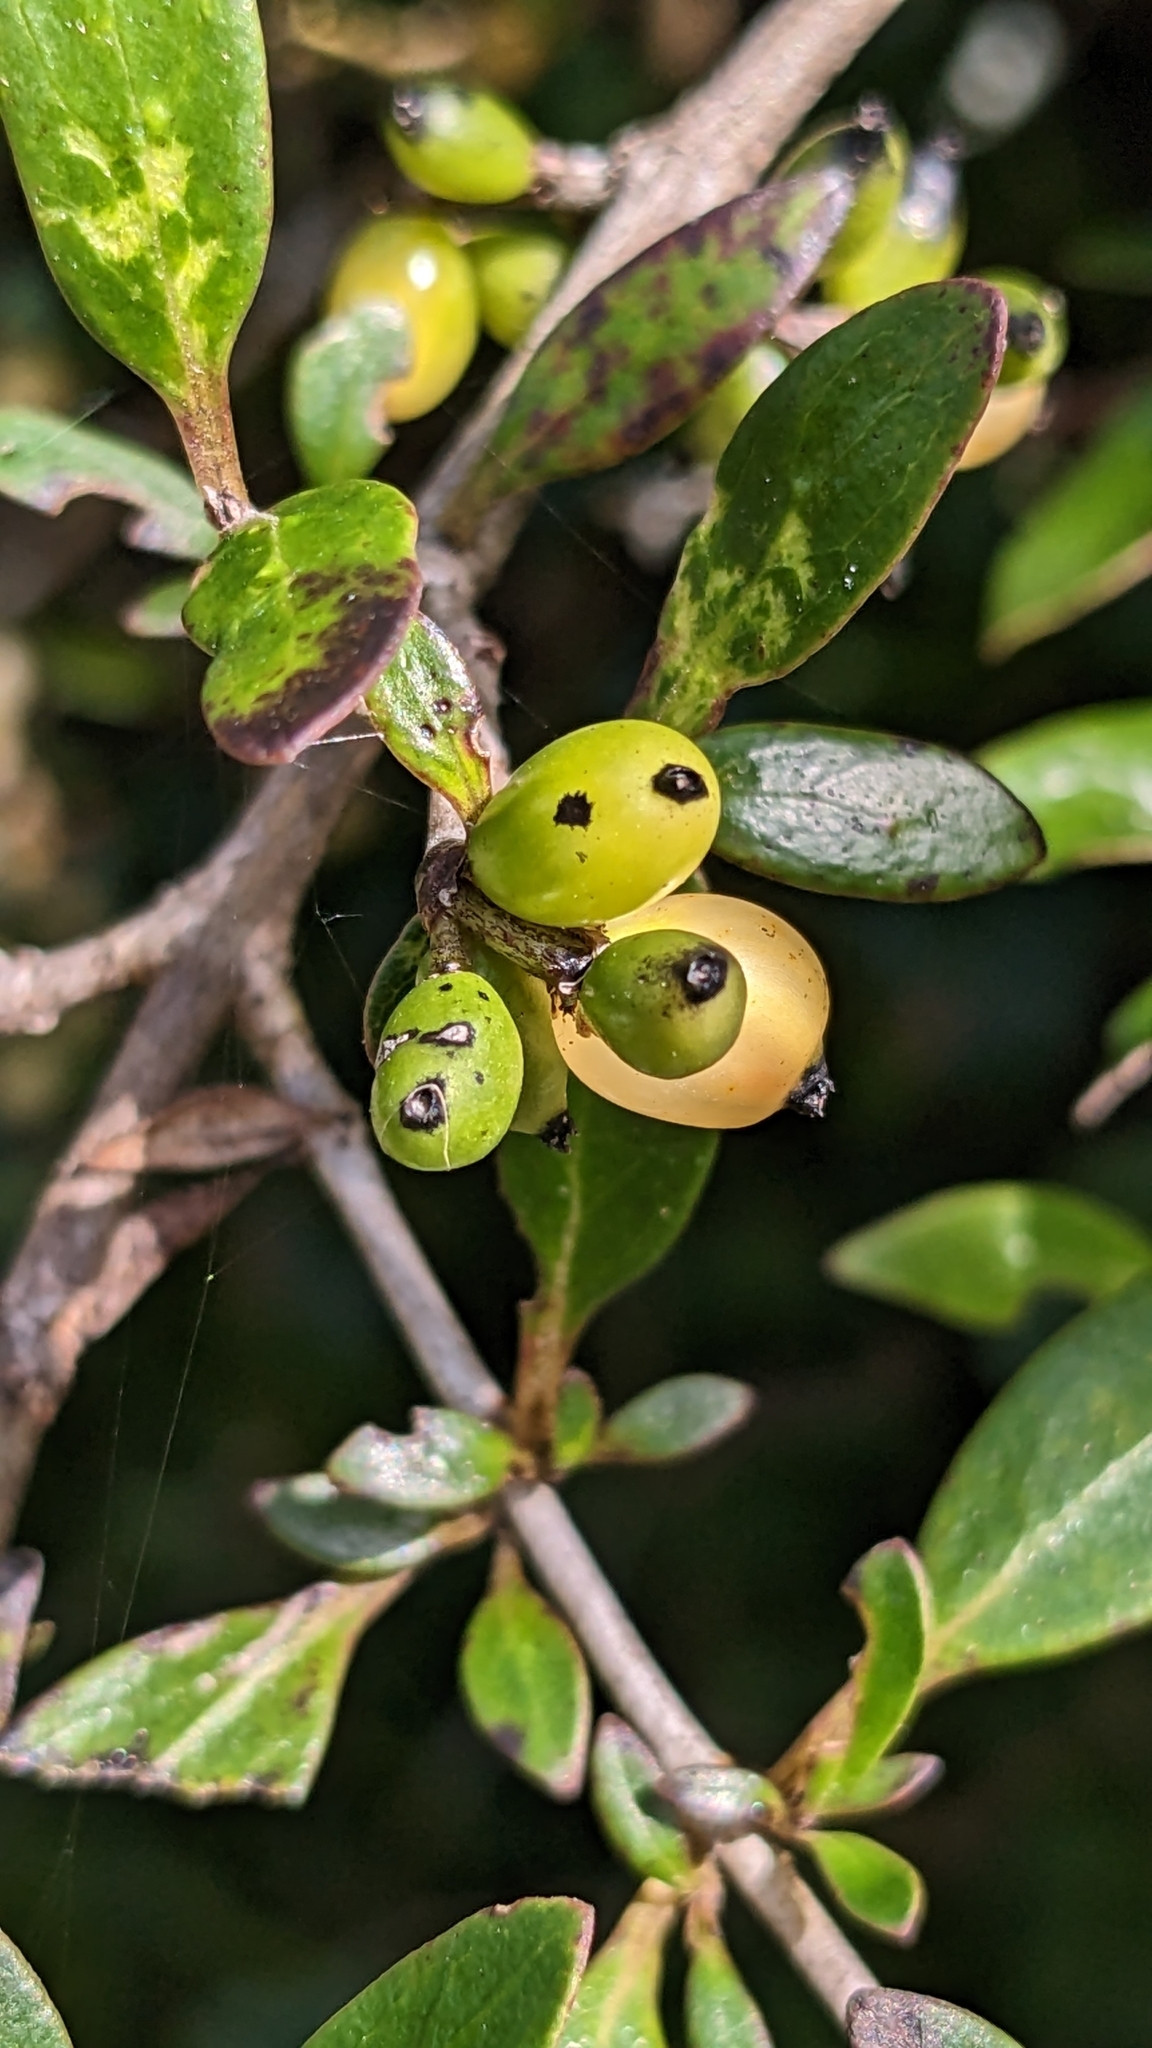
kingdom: Plantae
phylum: Tracheophyta
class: Magnoliopsida
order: Gentianales
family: Rubiaceae
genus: Coprosma
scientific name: Coprosma propinqua
